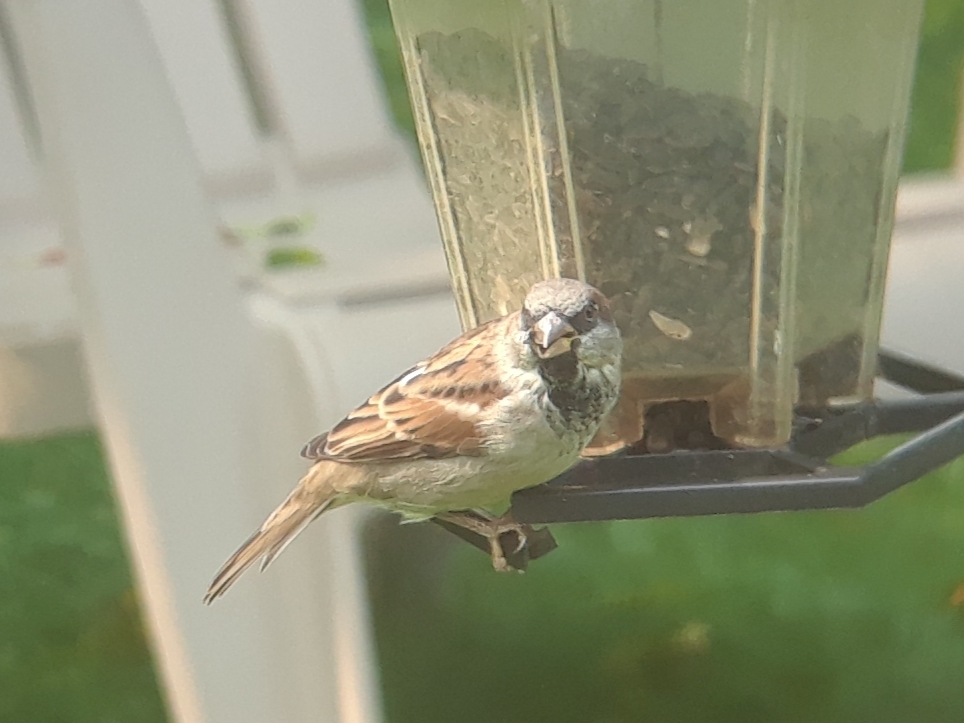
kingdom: Animalia
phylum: Chordata
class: Aves
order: Passeriformes
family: Passeridae
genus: Passer
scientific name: Passer domesticus
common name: House sparrow
